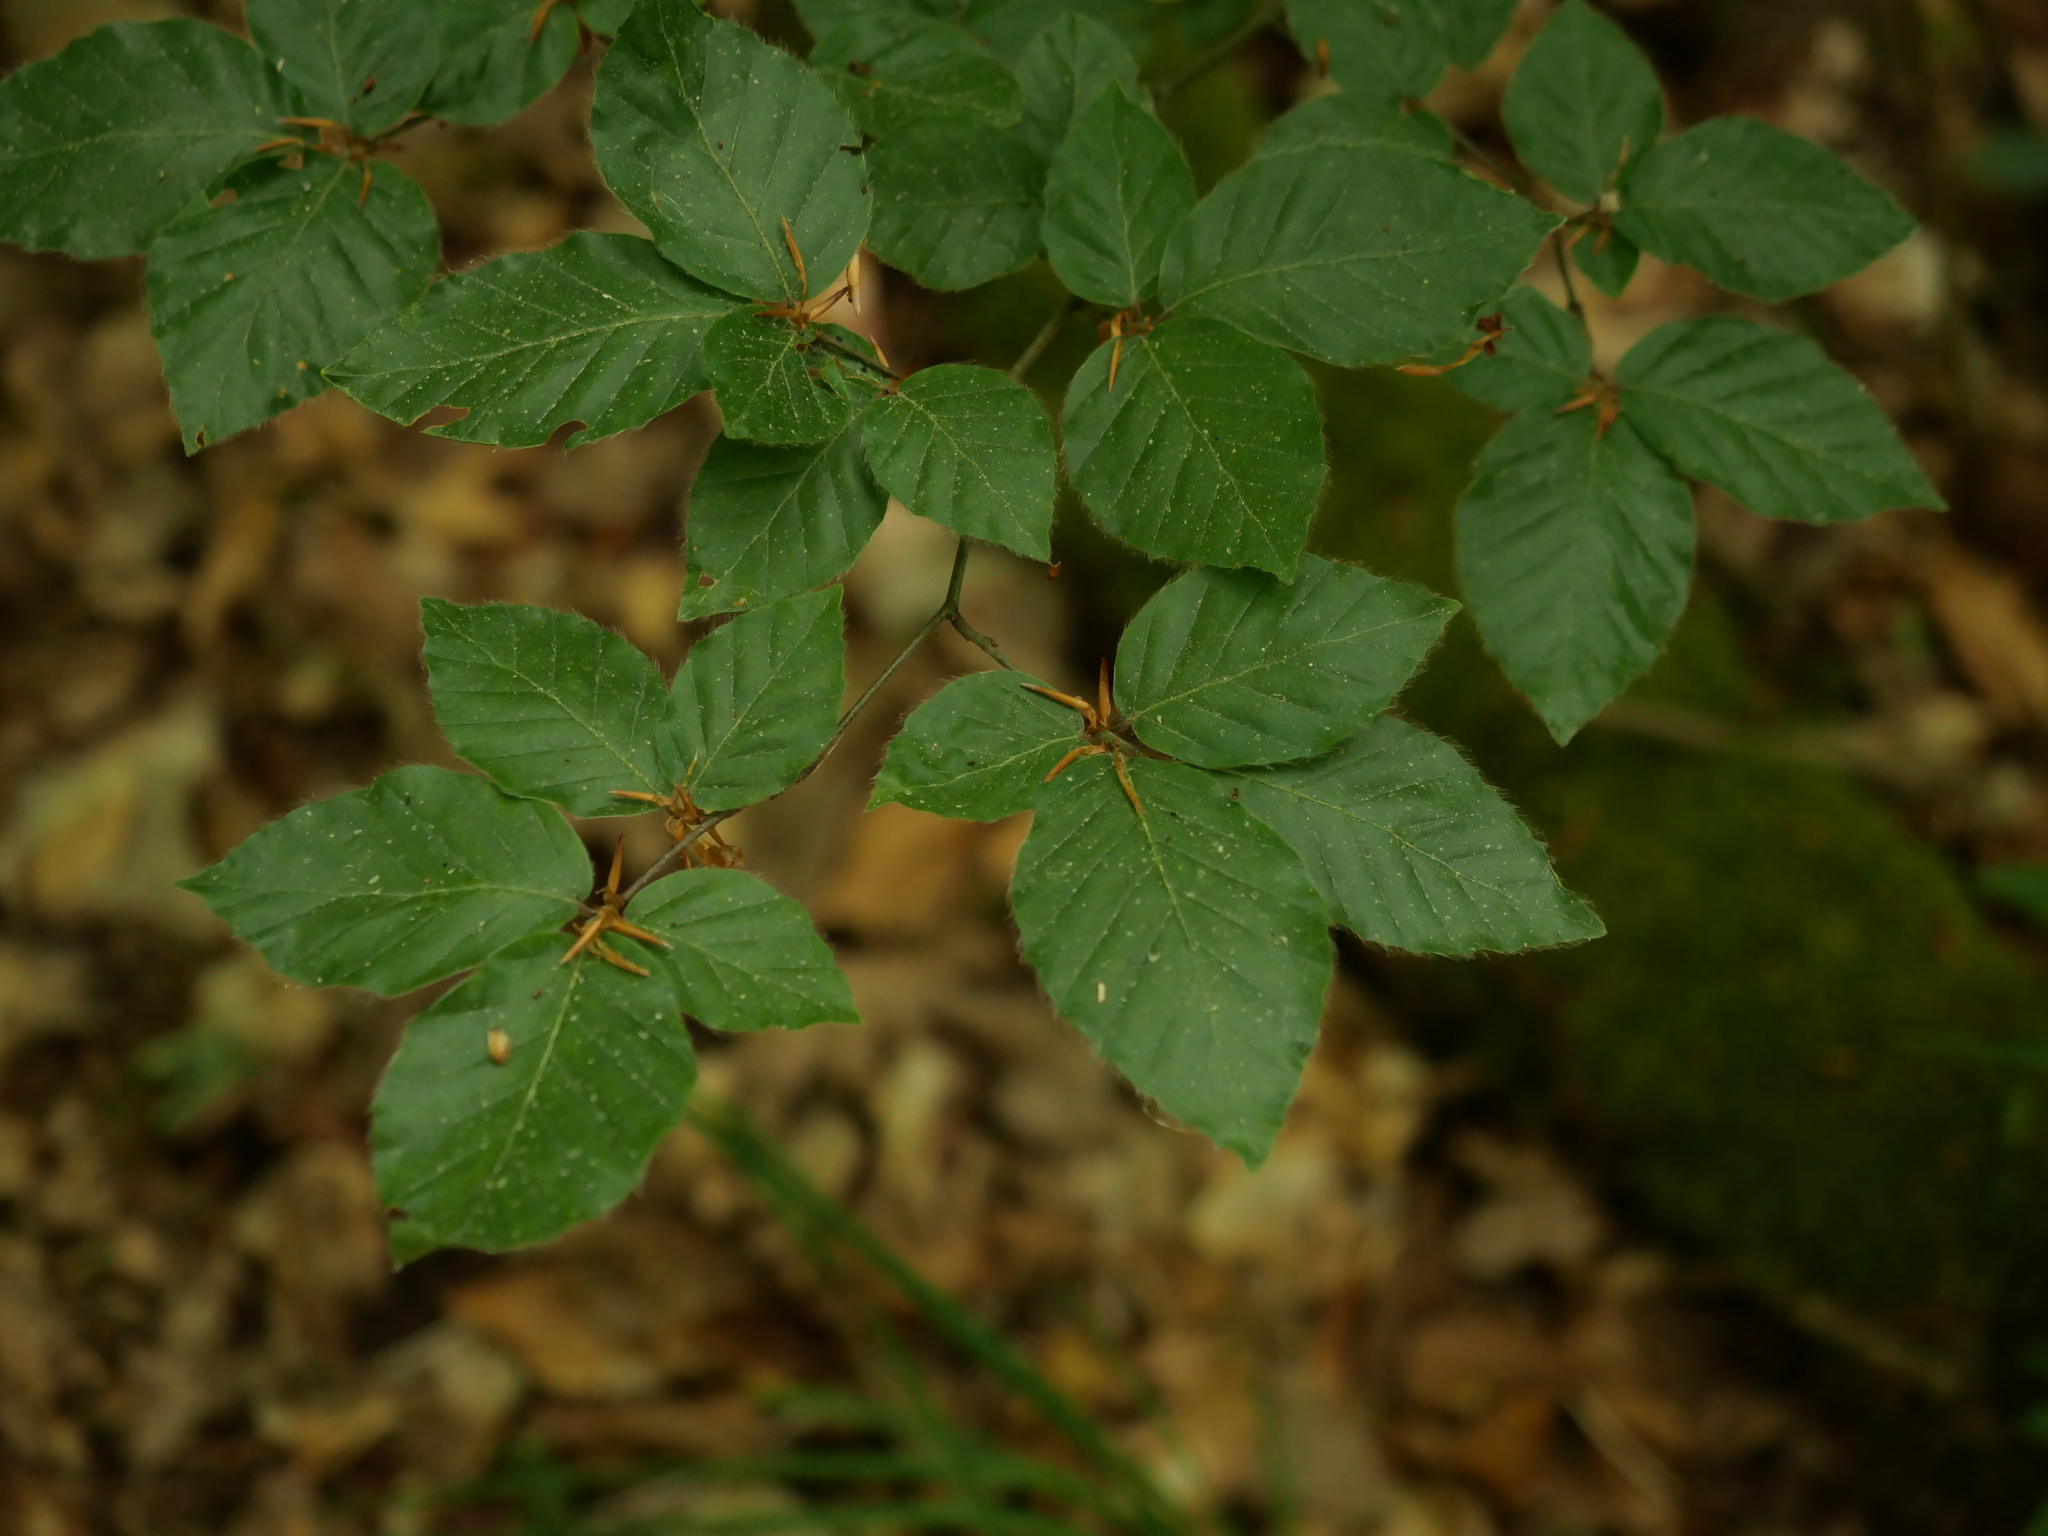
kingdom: Plantae
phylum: Tracheophyta
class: Magnoliopsida
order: Fagales
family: Fagaceae
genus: Fagus
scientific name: Fagus sylvatica
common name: Beech
